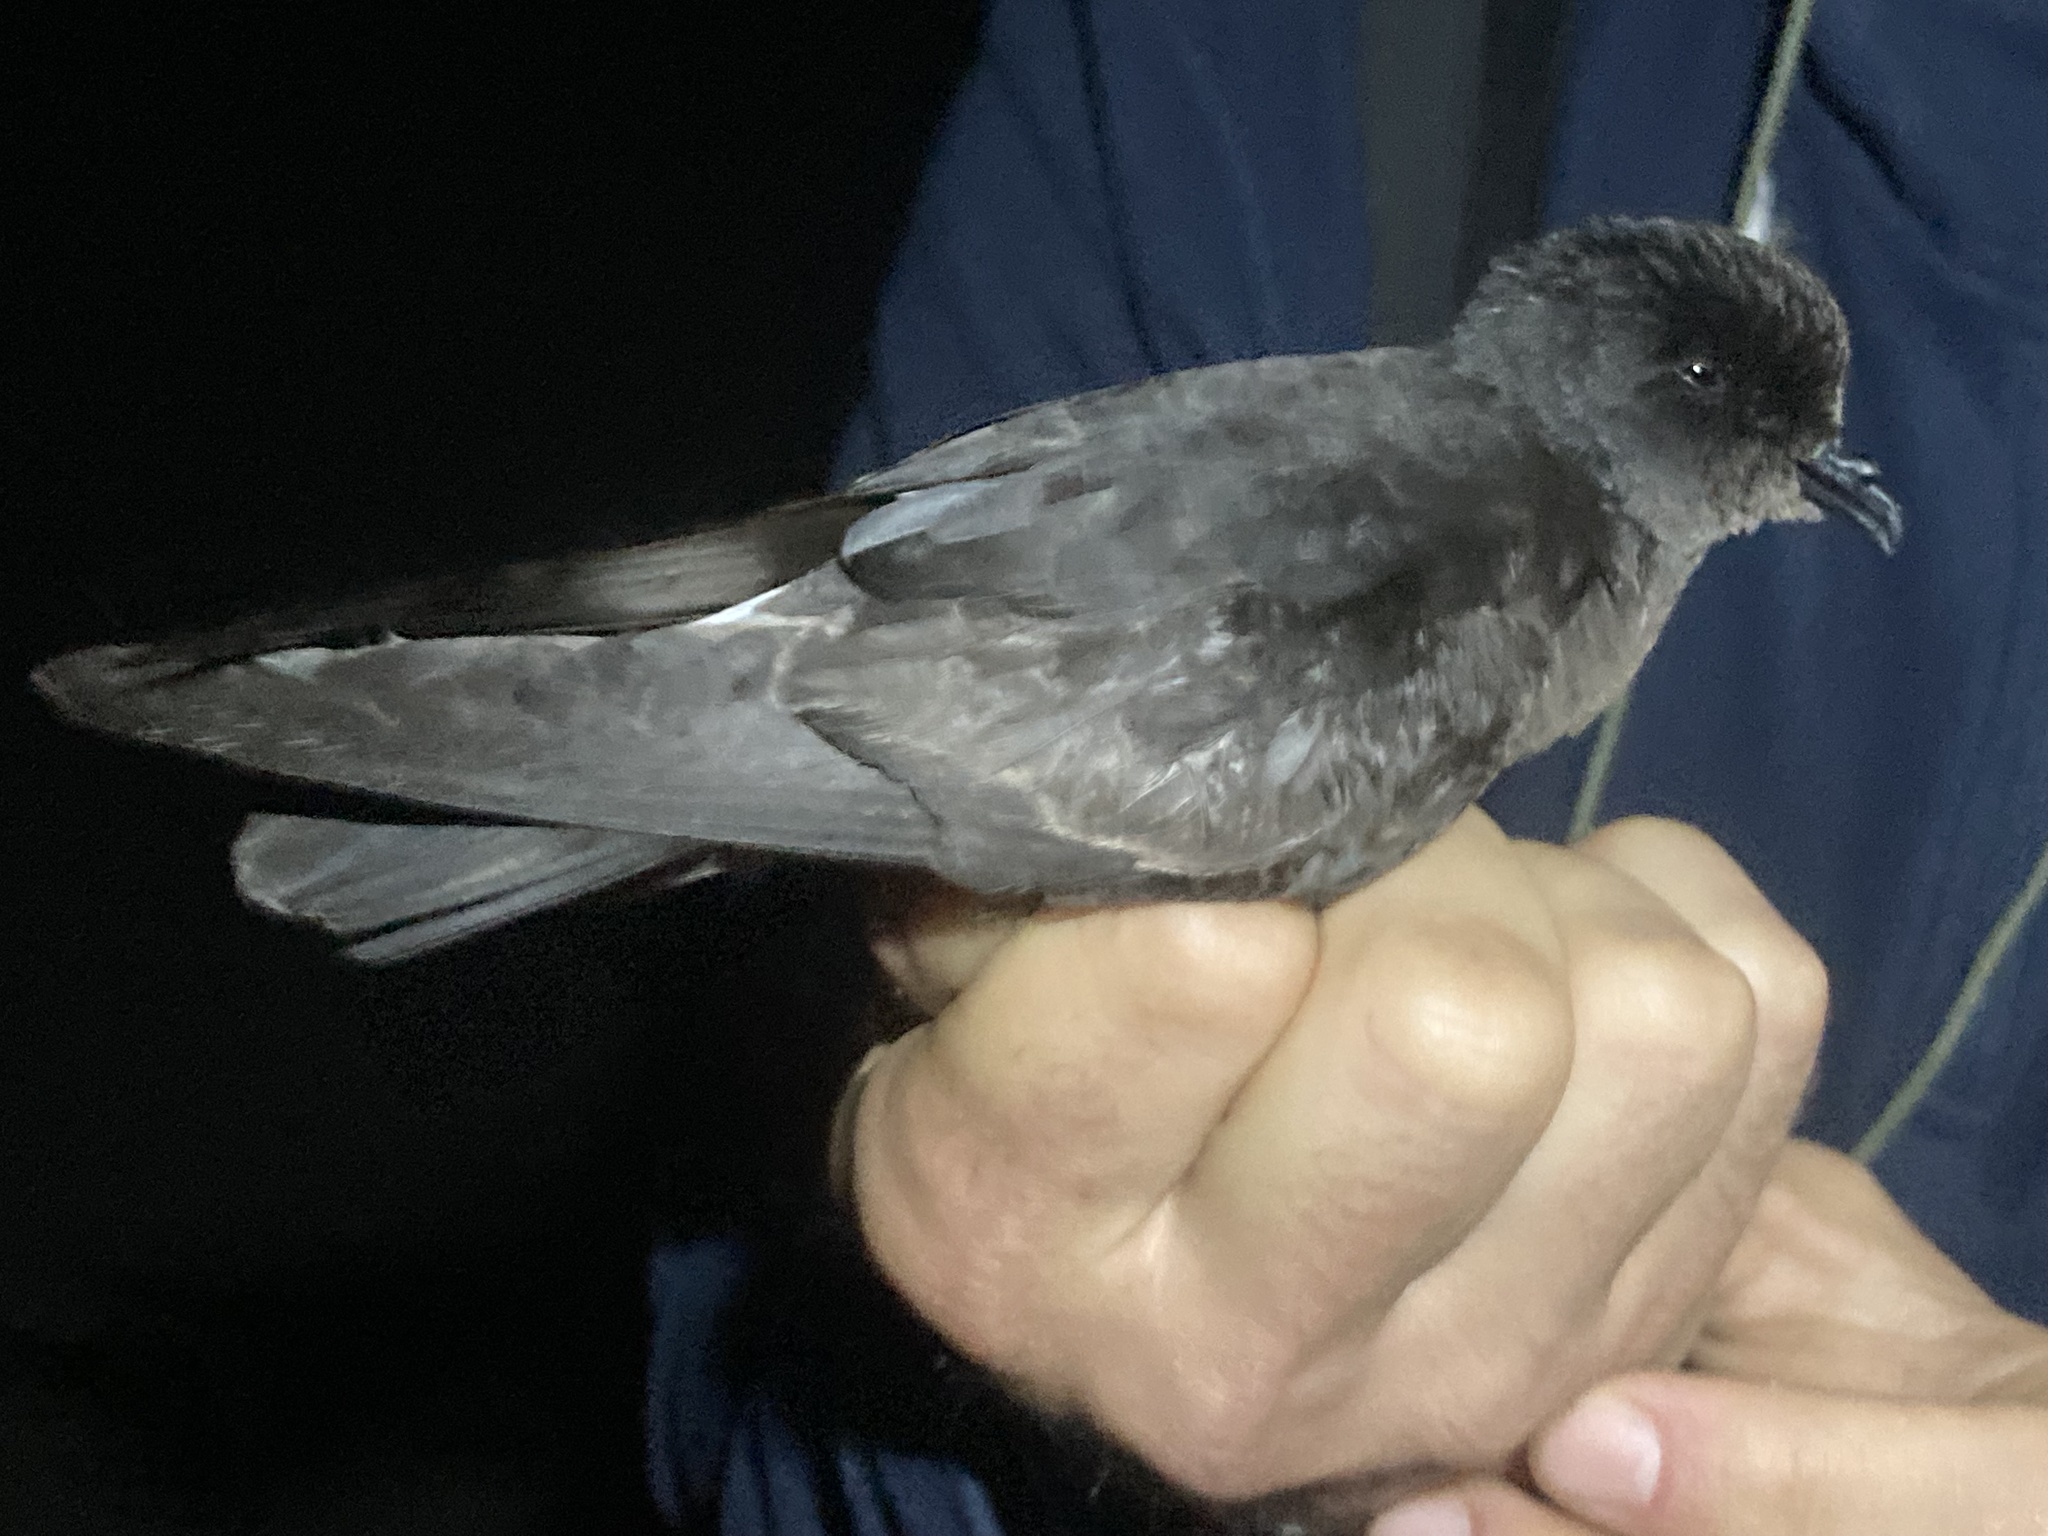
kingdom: Animalia
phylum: Chordata
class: Aves
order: Procellariiformes
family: Hydrobatidae
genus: Hydrobates
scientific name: Hydrobates pelagicus
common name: European storm-petrel
